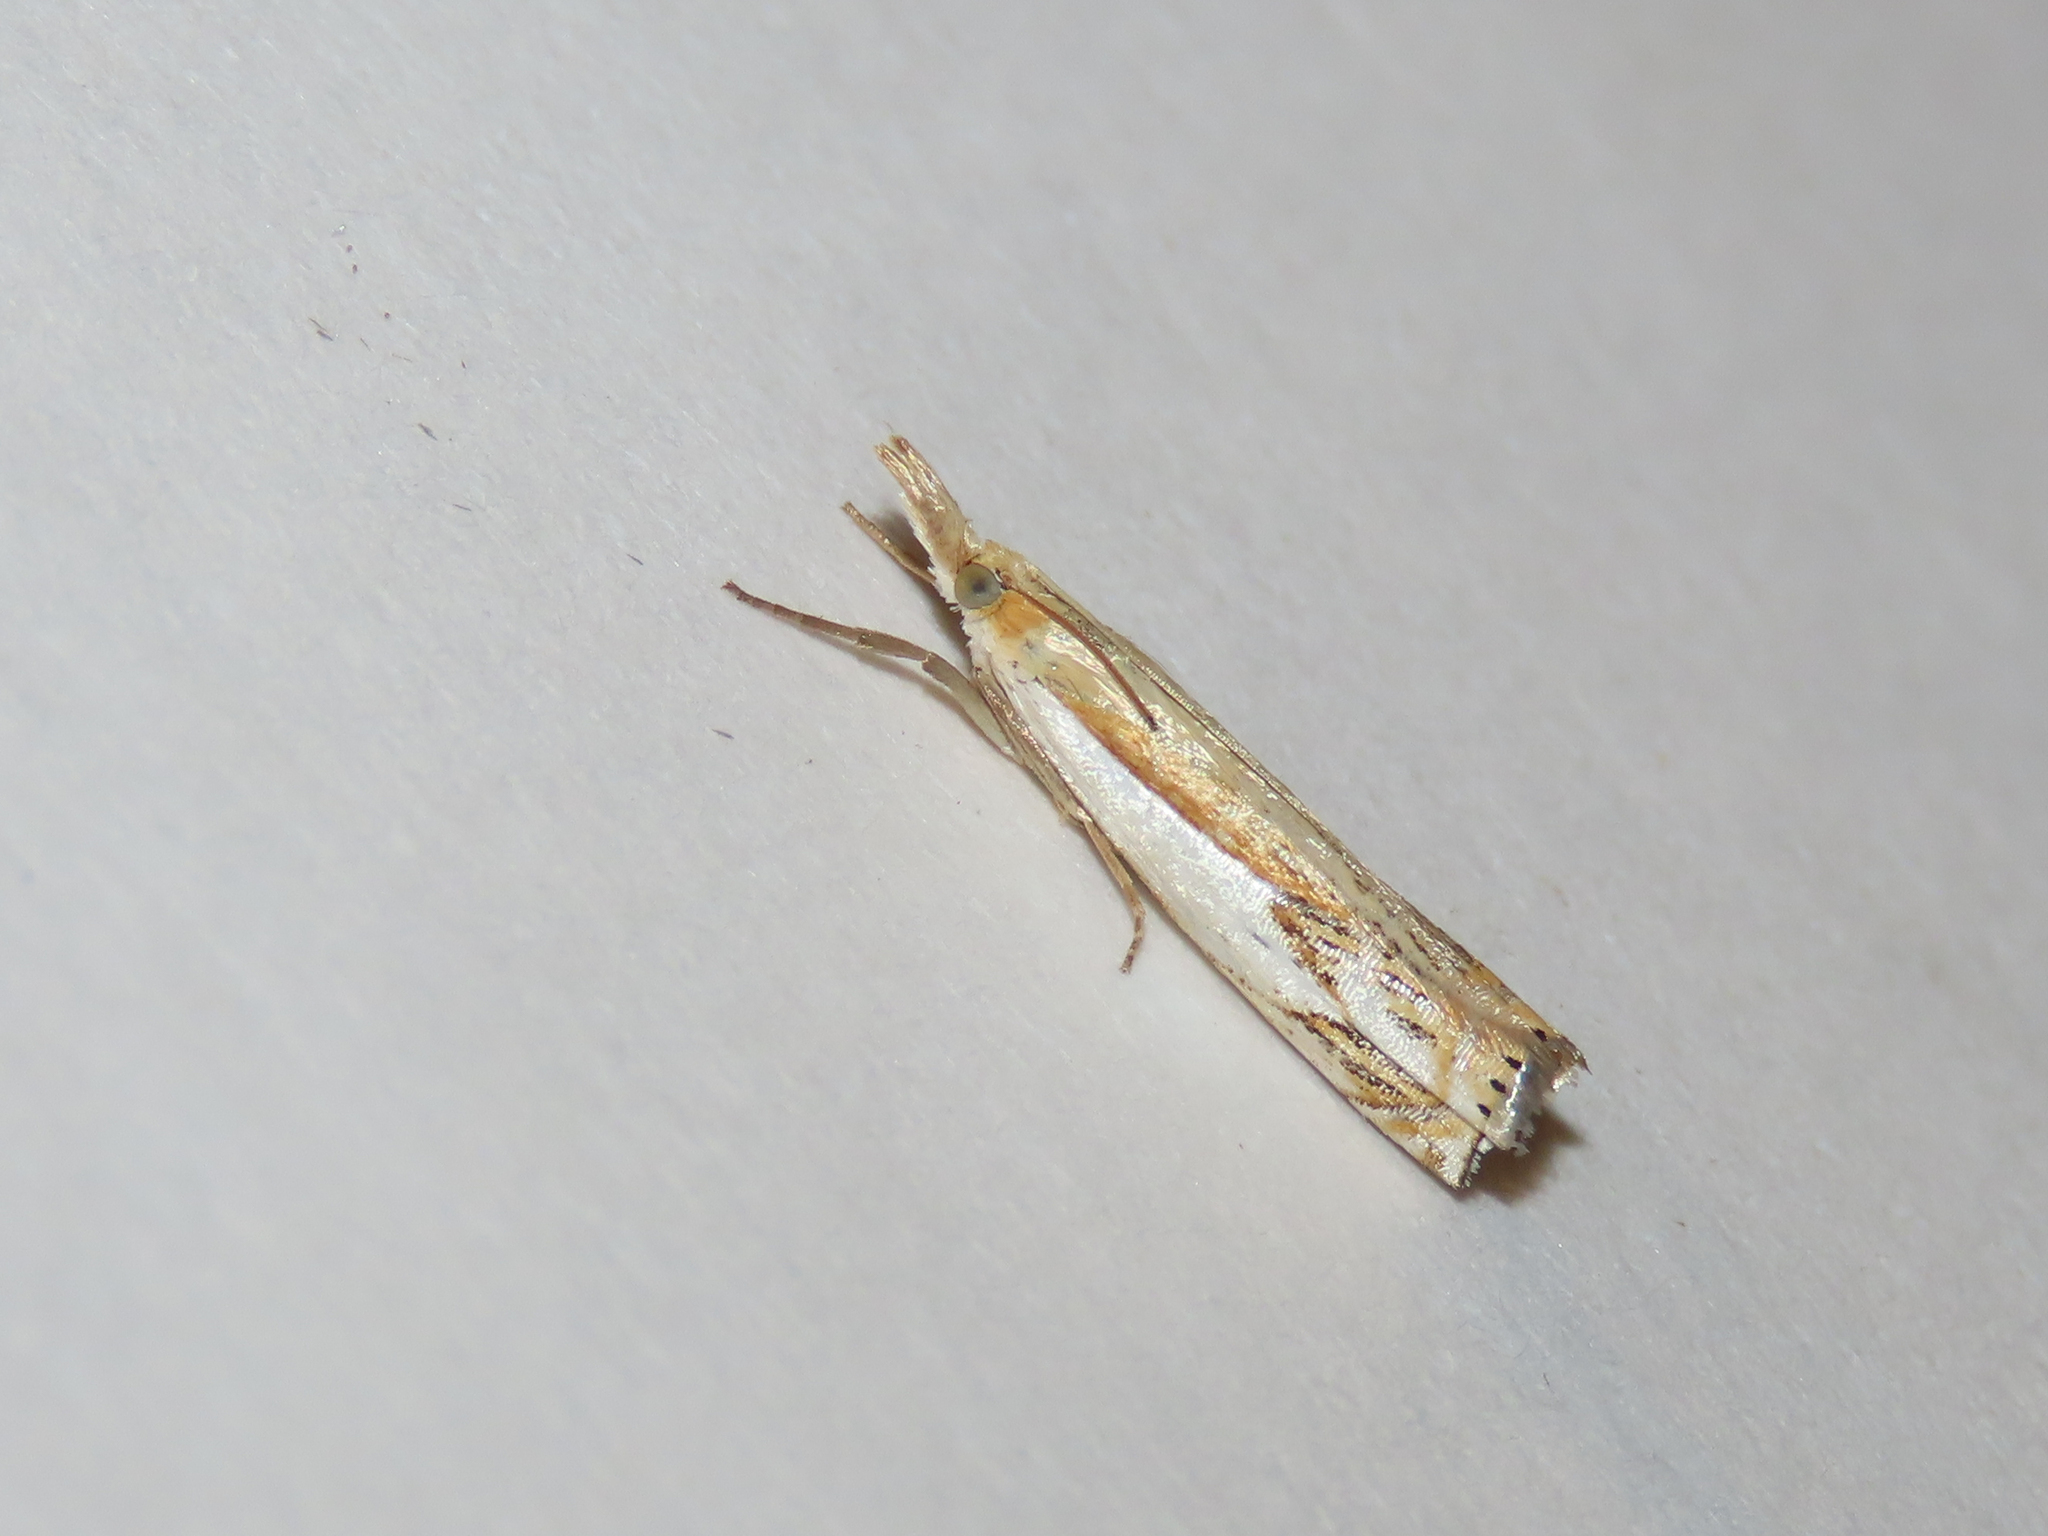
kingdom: Animalia
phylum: Arthropoda
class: Insecta
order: Lepidoptera
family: Crambidae
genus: Crambus
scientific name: Crambus agitatellus
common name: Double-banded grass-veneer
